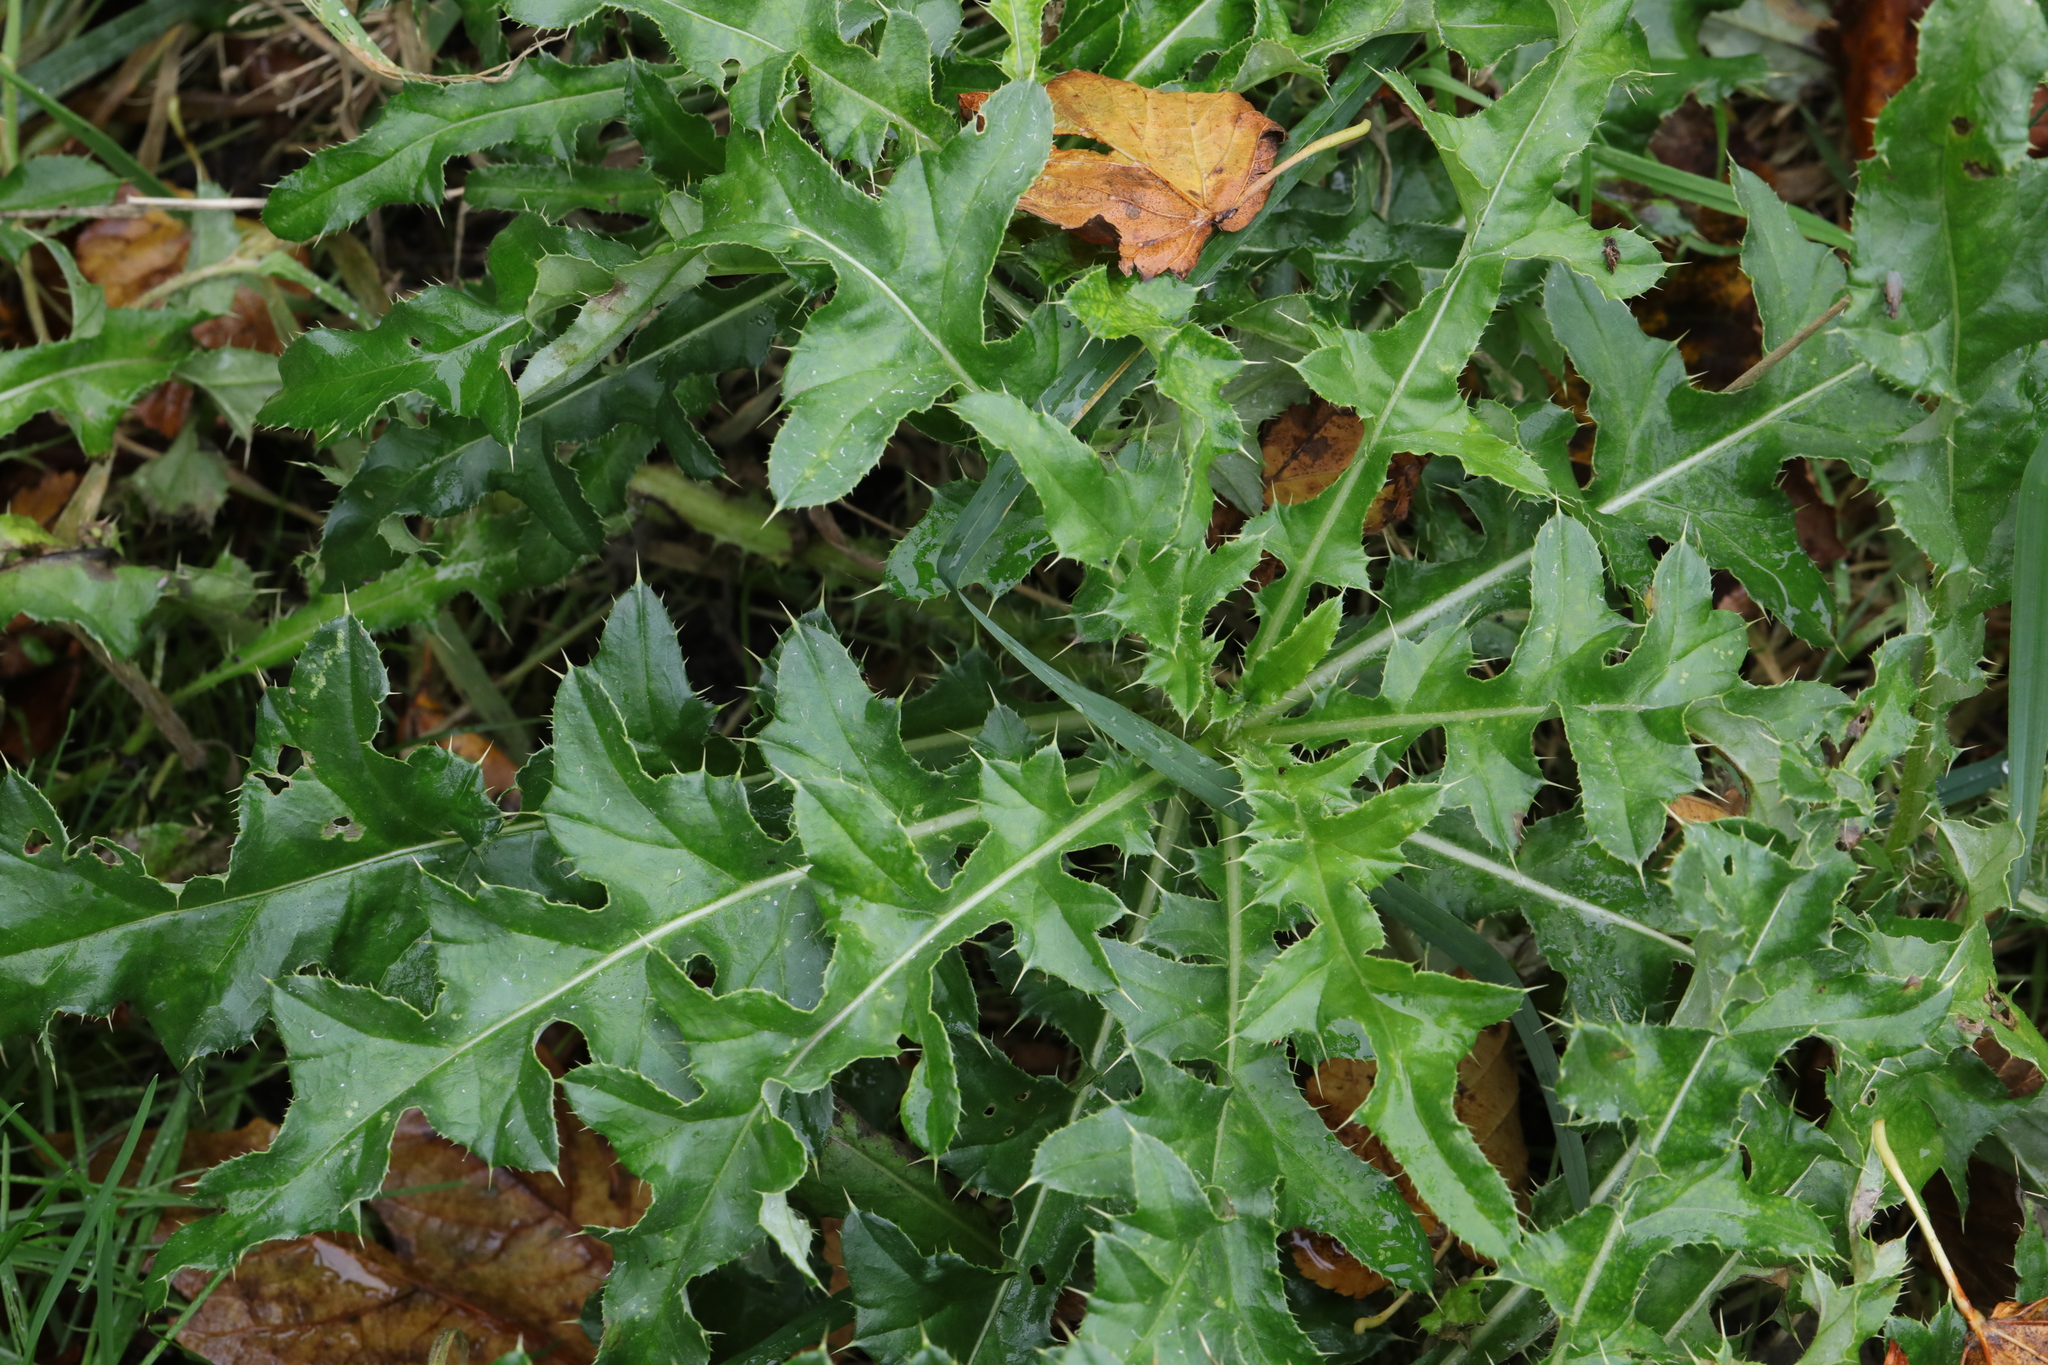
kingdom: Plantae
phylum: Tracheophyta
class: Magnoliopsida
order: Asterales
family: Asteraceae
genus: Cirsium
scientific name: Cirsium arvense
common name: Creeping thistle
